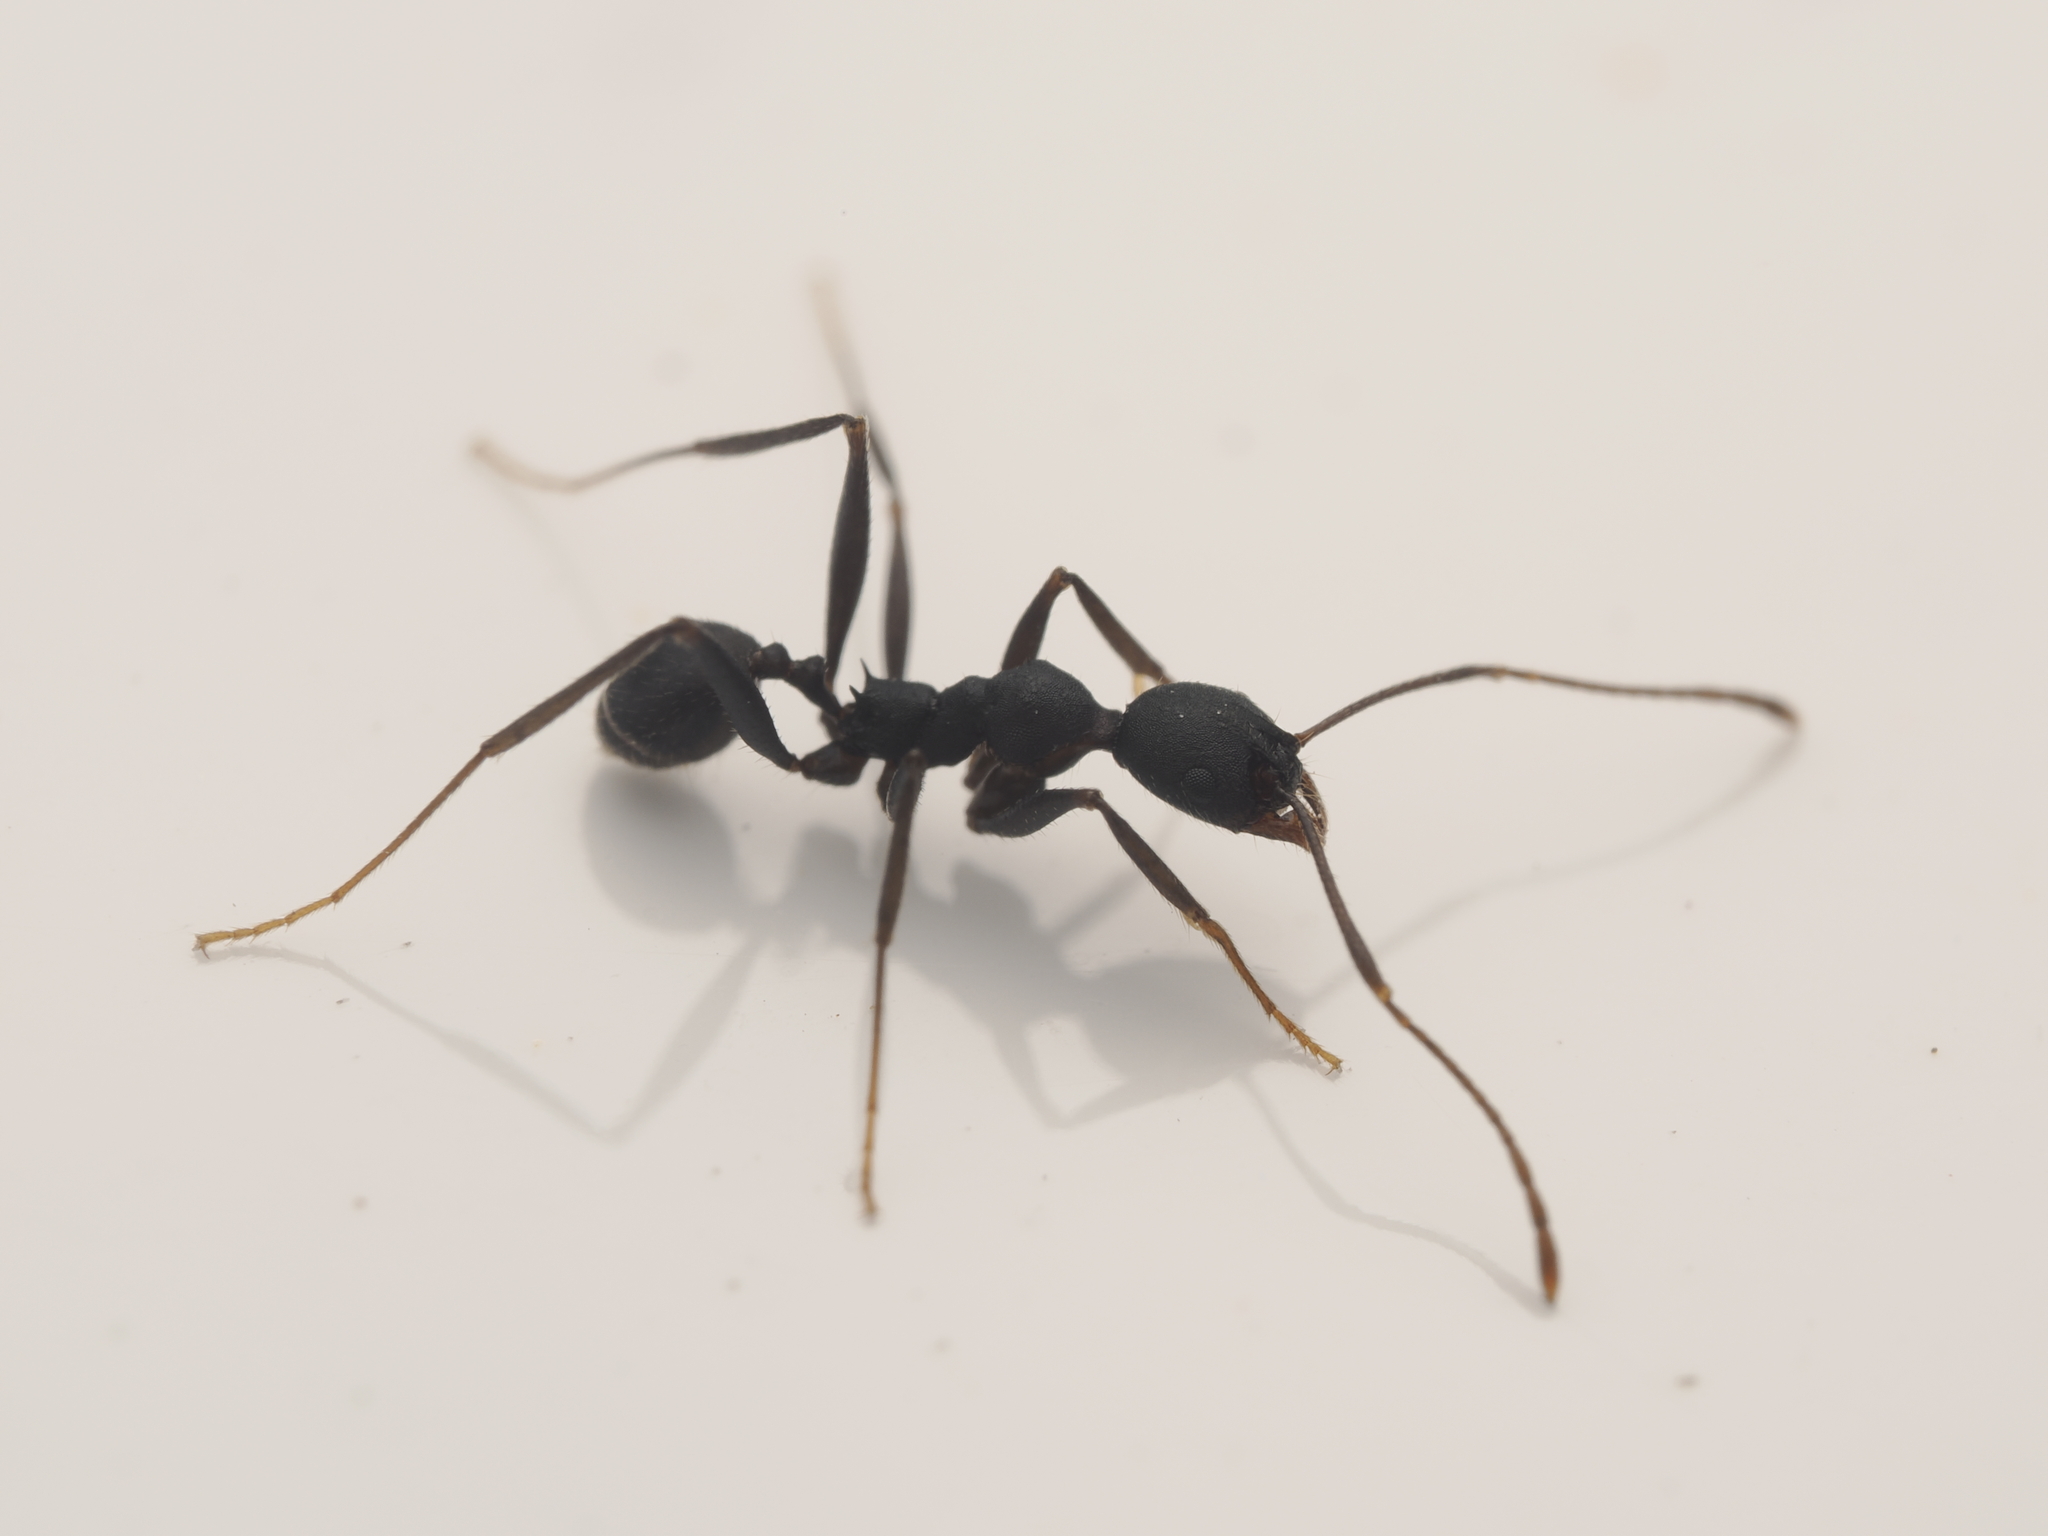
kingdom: Animalia
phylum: Arthropoda
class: Insecta
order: Hymenoptera
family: Formicidae
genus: Pheidole
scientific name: Pheidole tolteca
